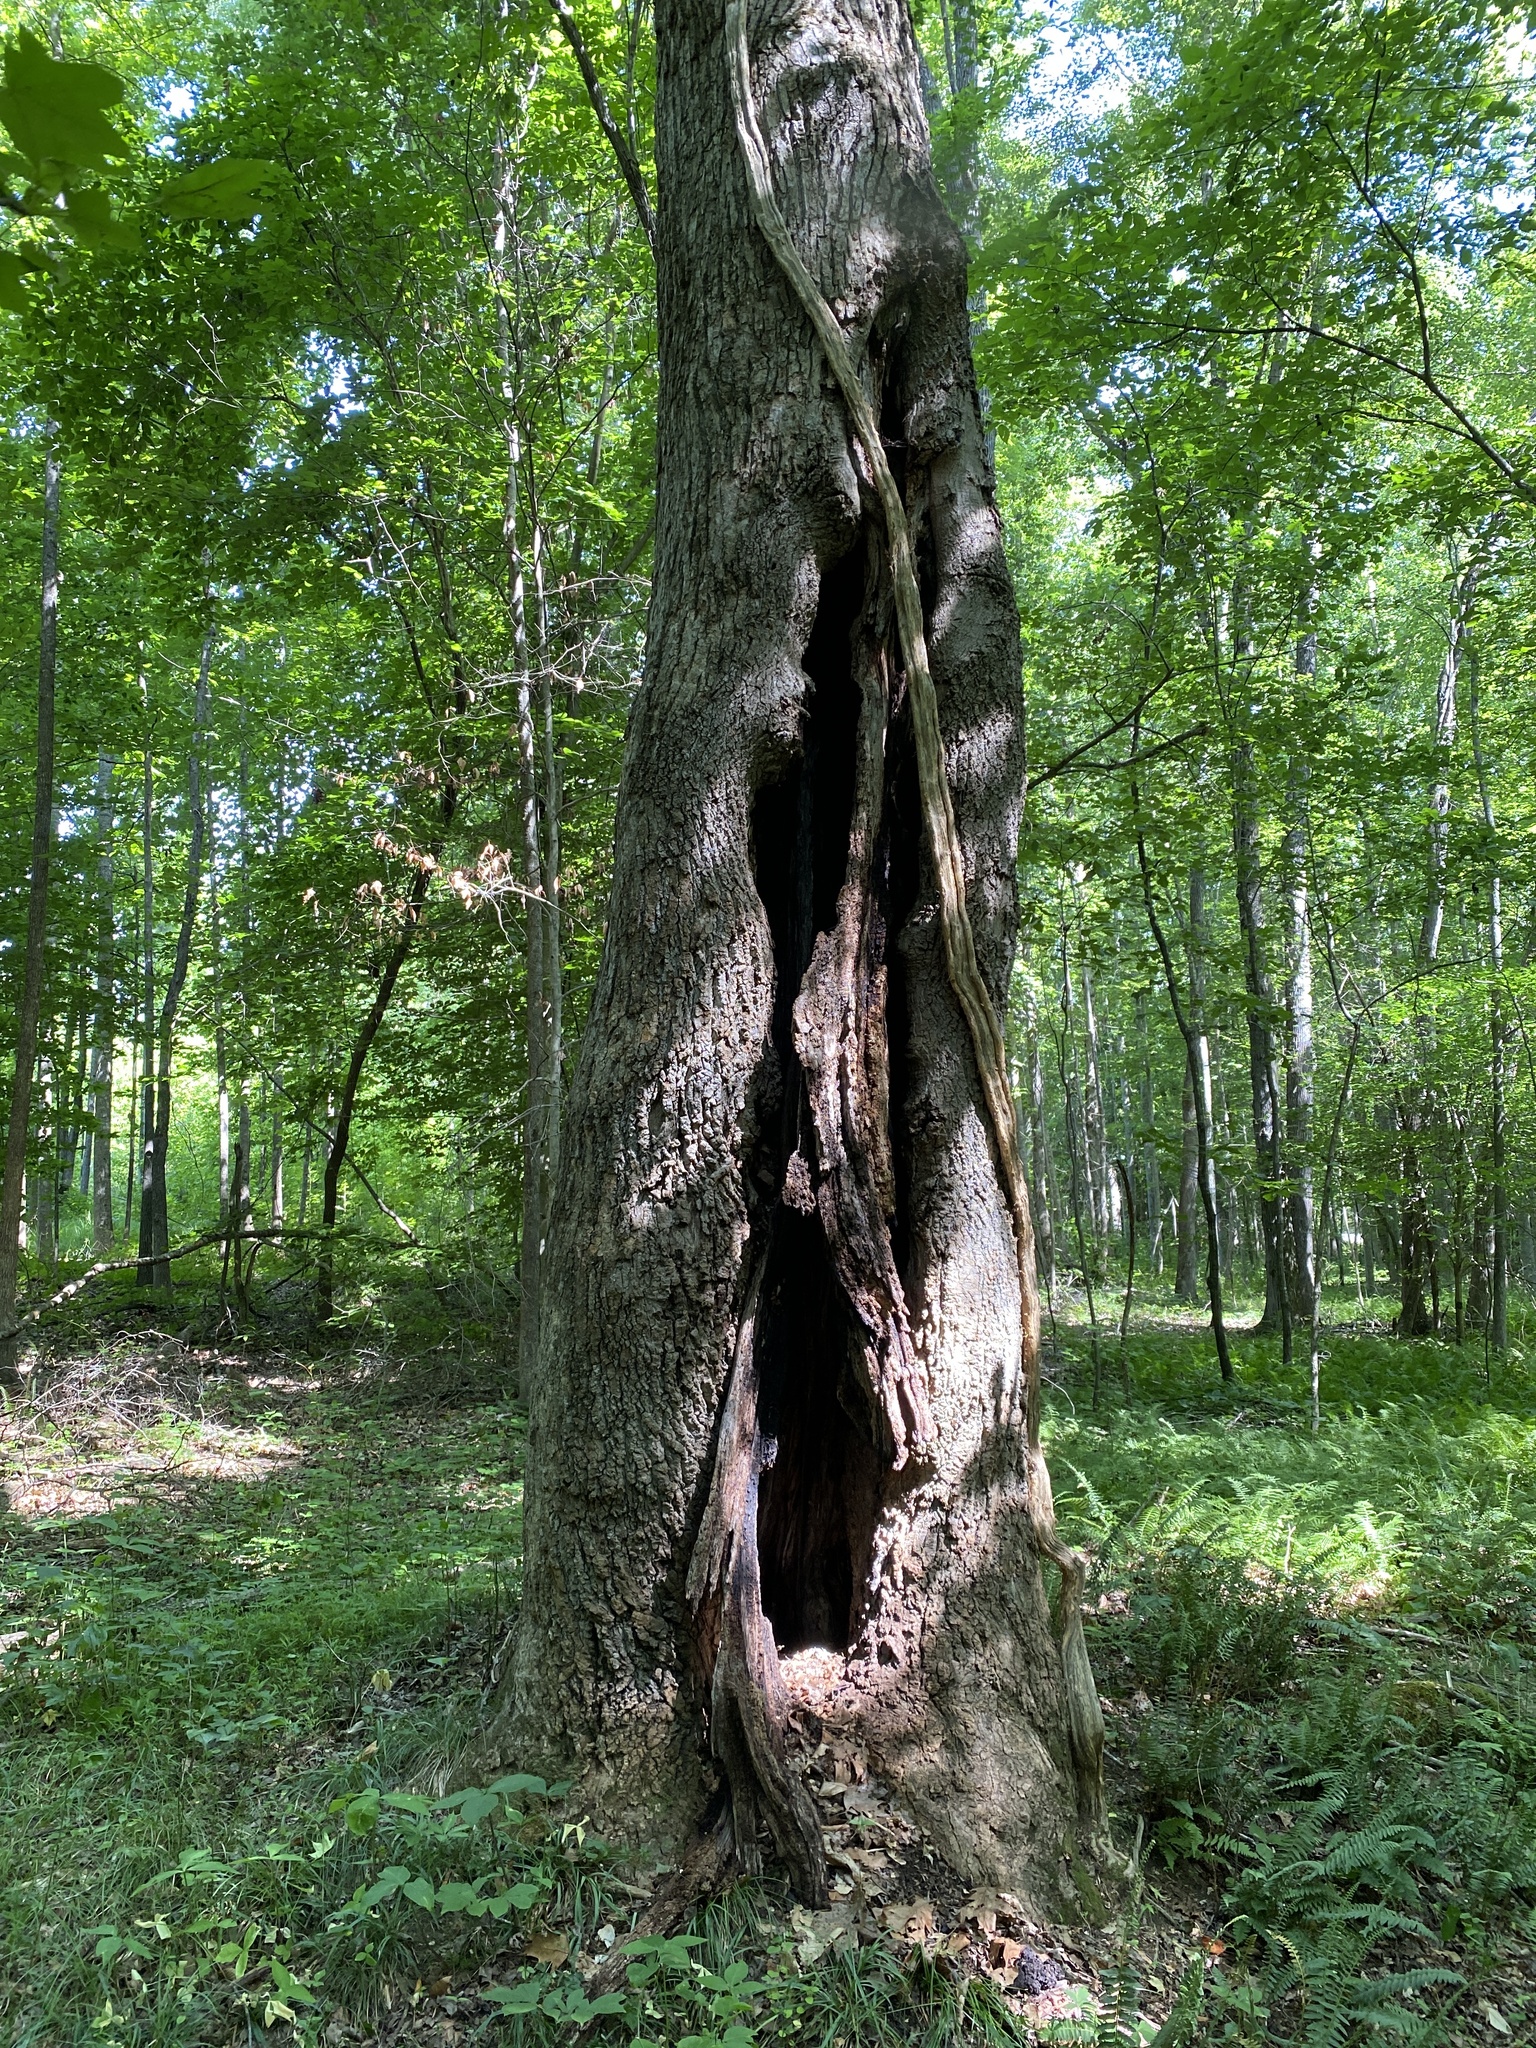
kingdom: Plantae
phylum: Tracheophyta
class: Magnoliopsida
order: Magnoliales
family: Magnoliaceae
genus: Liriodendron
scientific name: Liriodendron tulipifera
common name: Tulip tree
